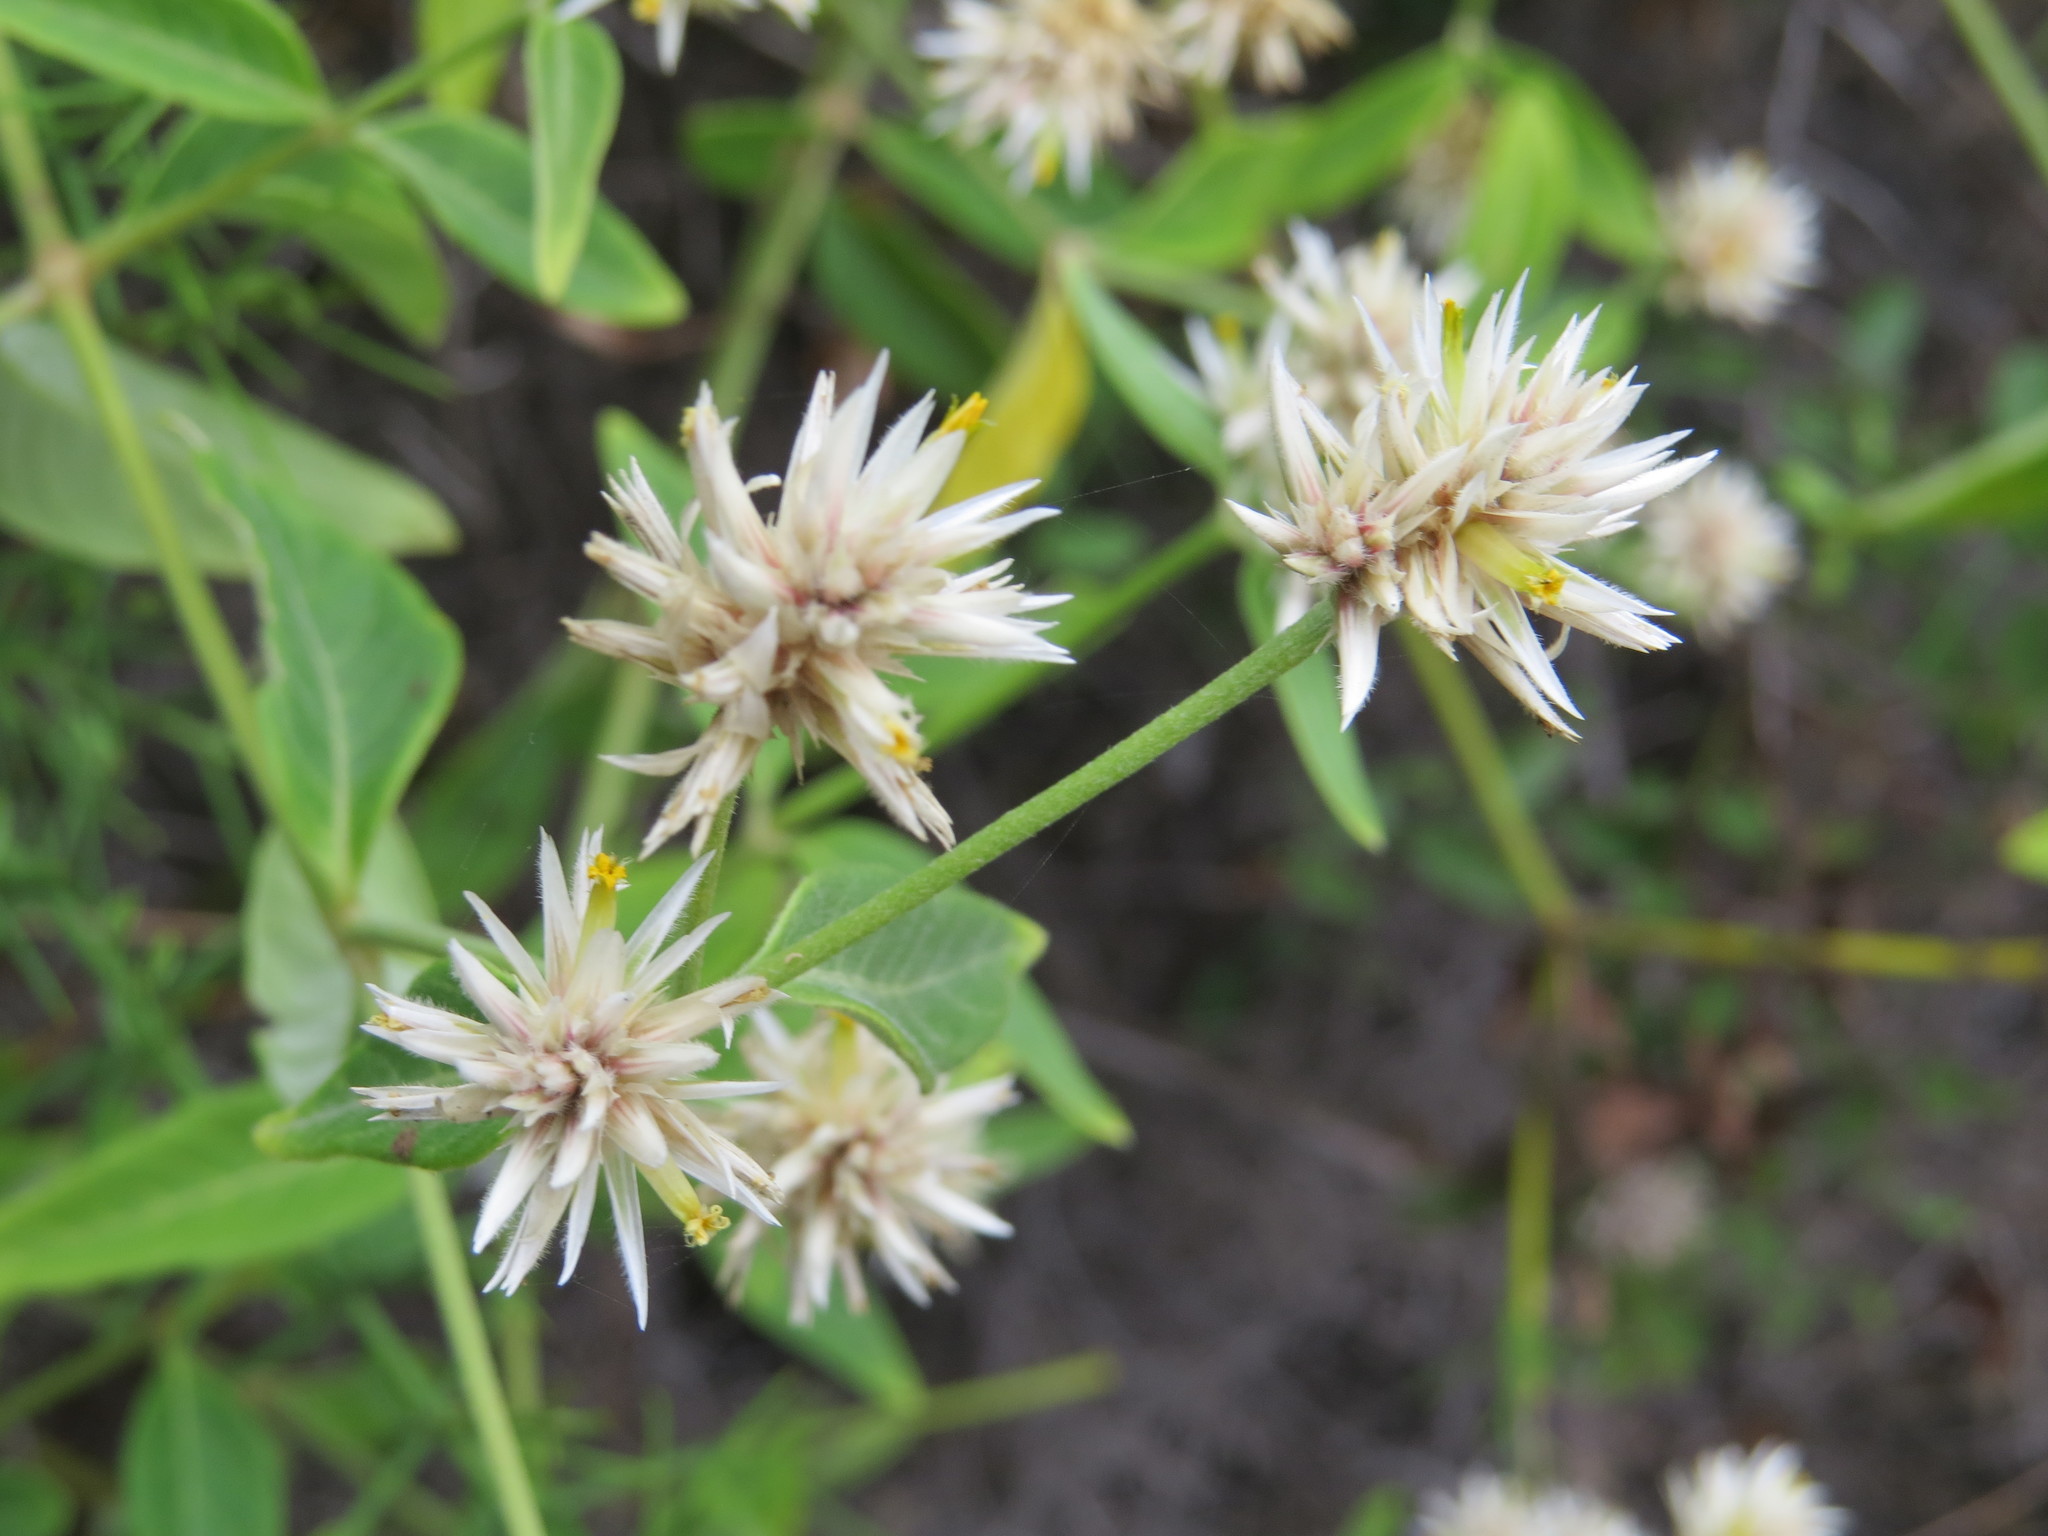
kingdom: Plantae
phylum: Tracheophyta
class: Magnoliopsida
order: Caryophyllales
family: Amaranthaceae
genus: Alternanthera
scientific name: Alternanthera echinocephala
